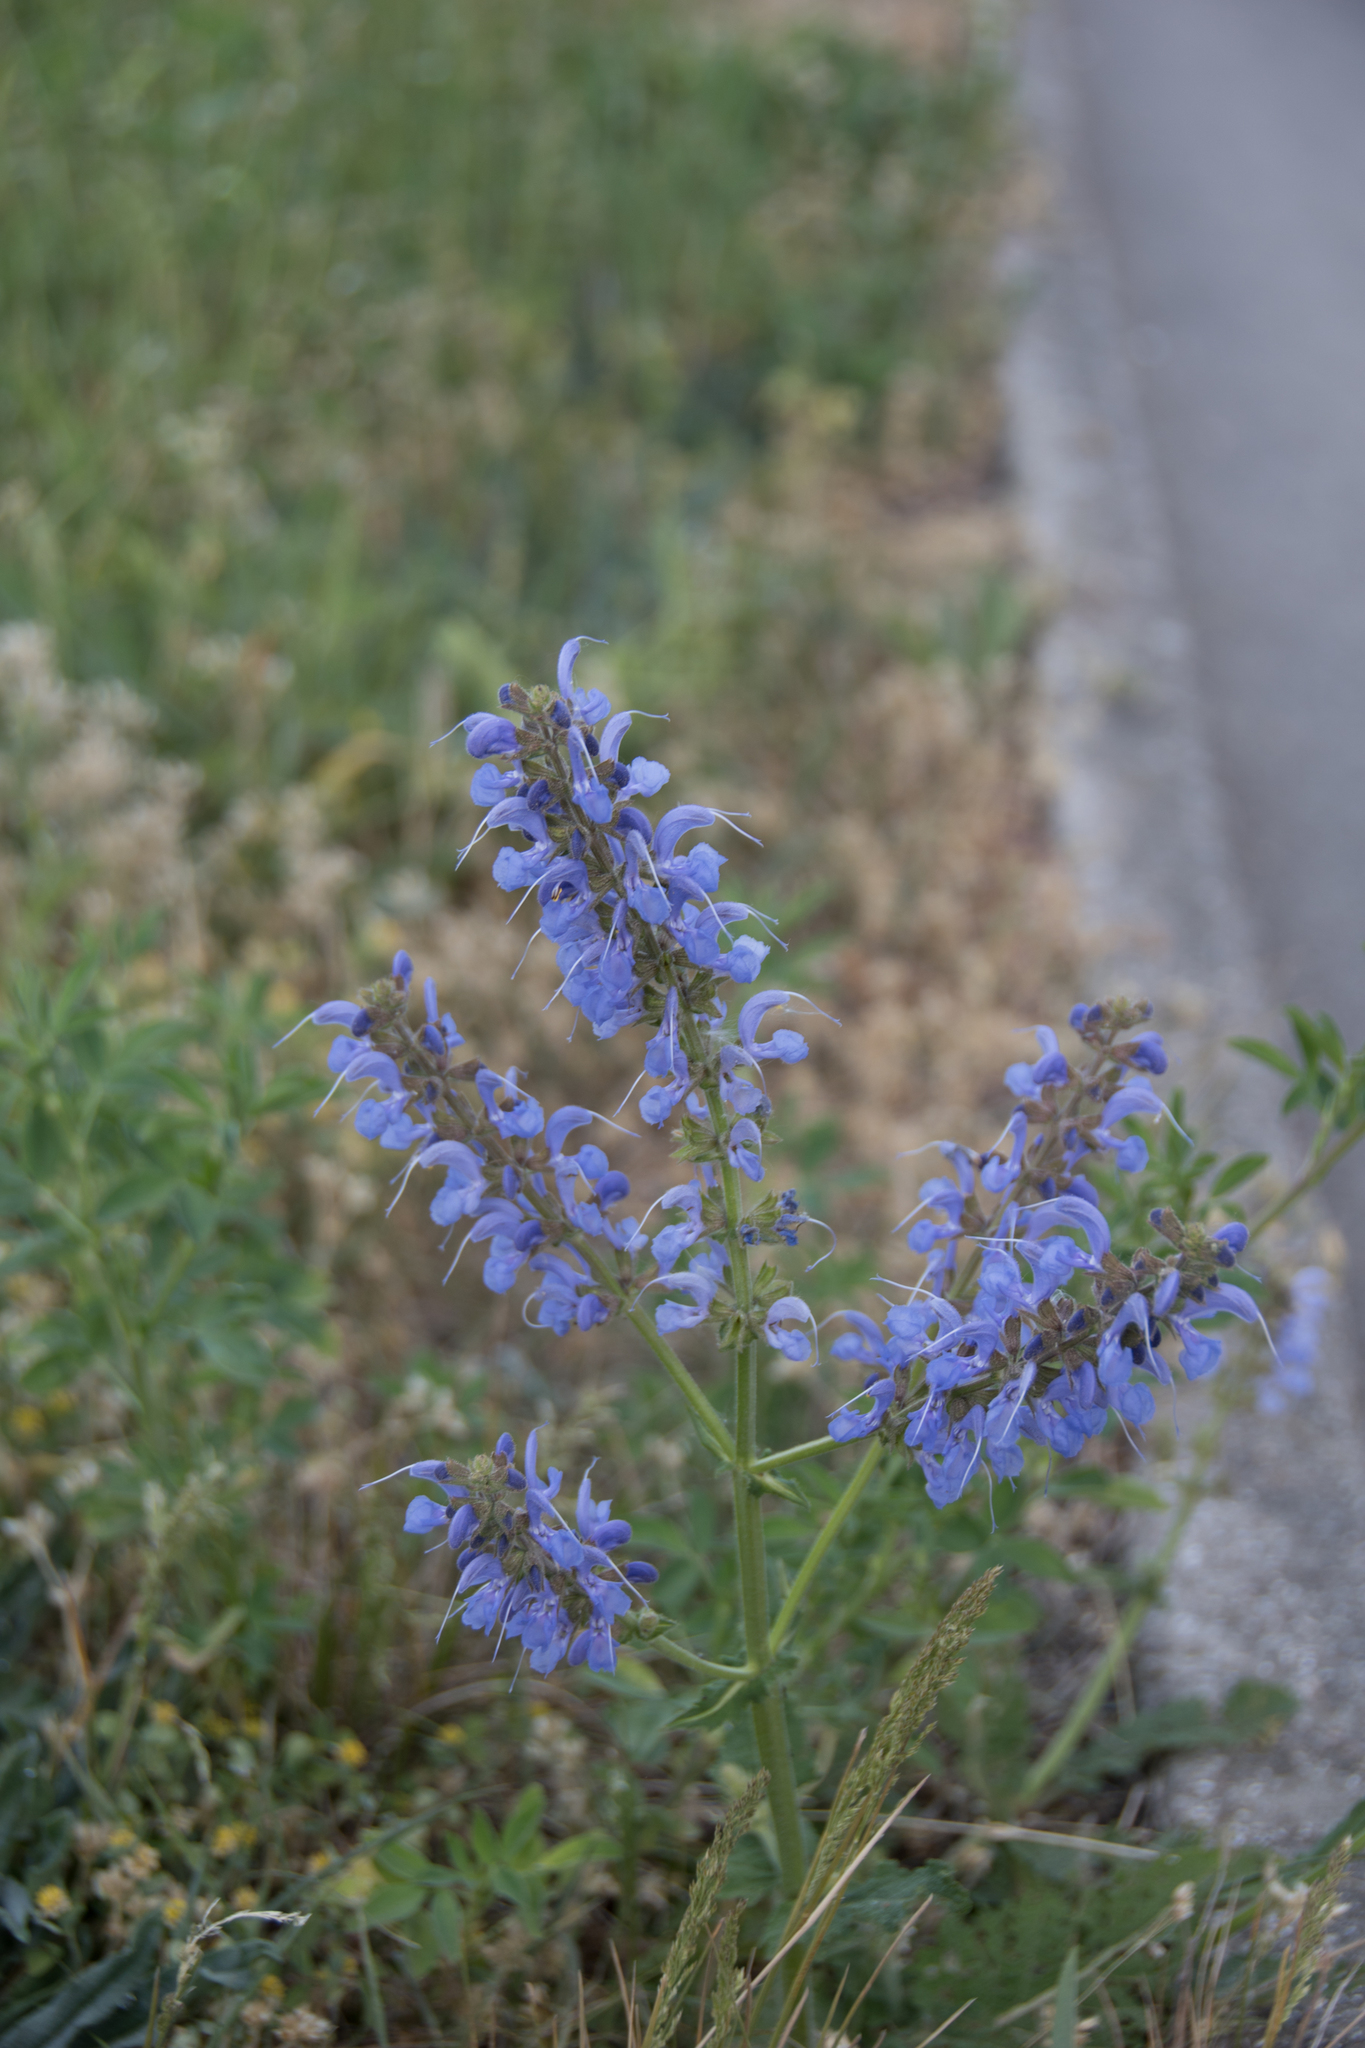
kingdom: Plantae
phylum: Tracheophyta
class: Magnoliopsida
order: Lamiales
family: Lamiaceae
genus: Salvia
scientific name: Salvia pratensis
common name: Meadow sage
